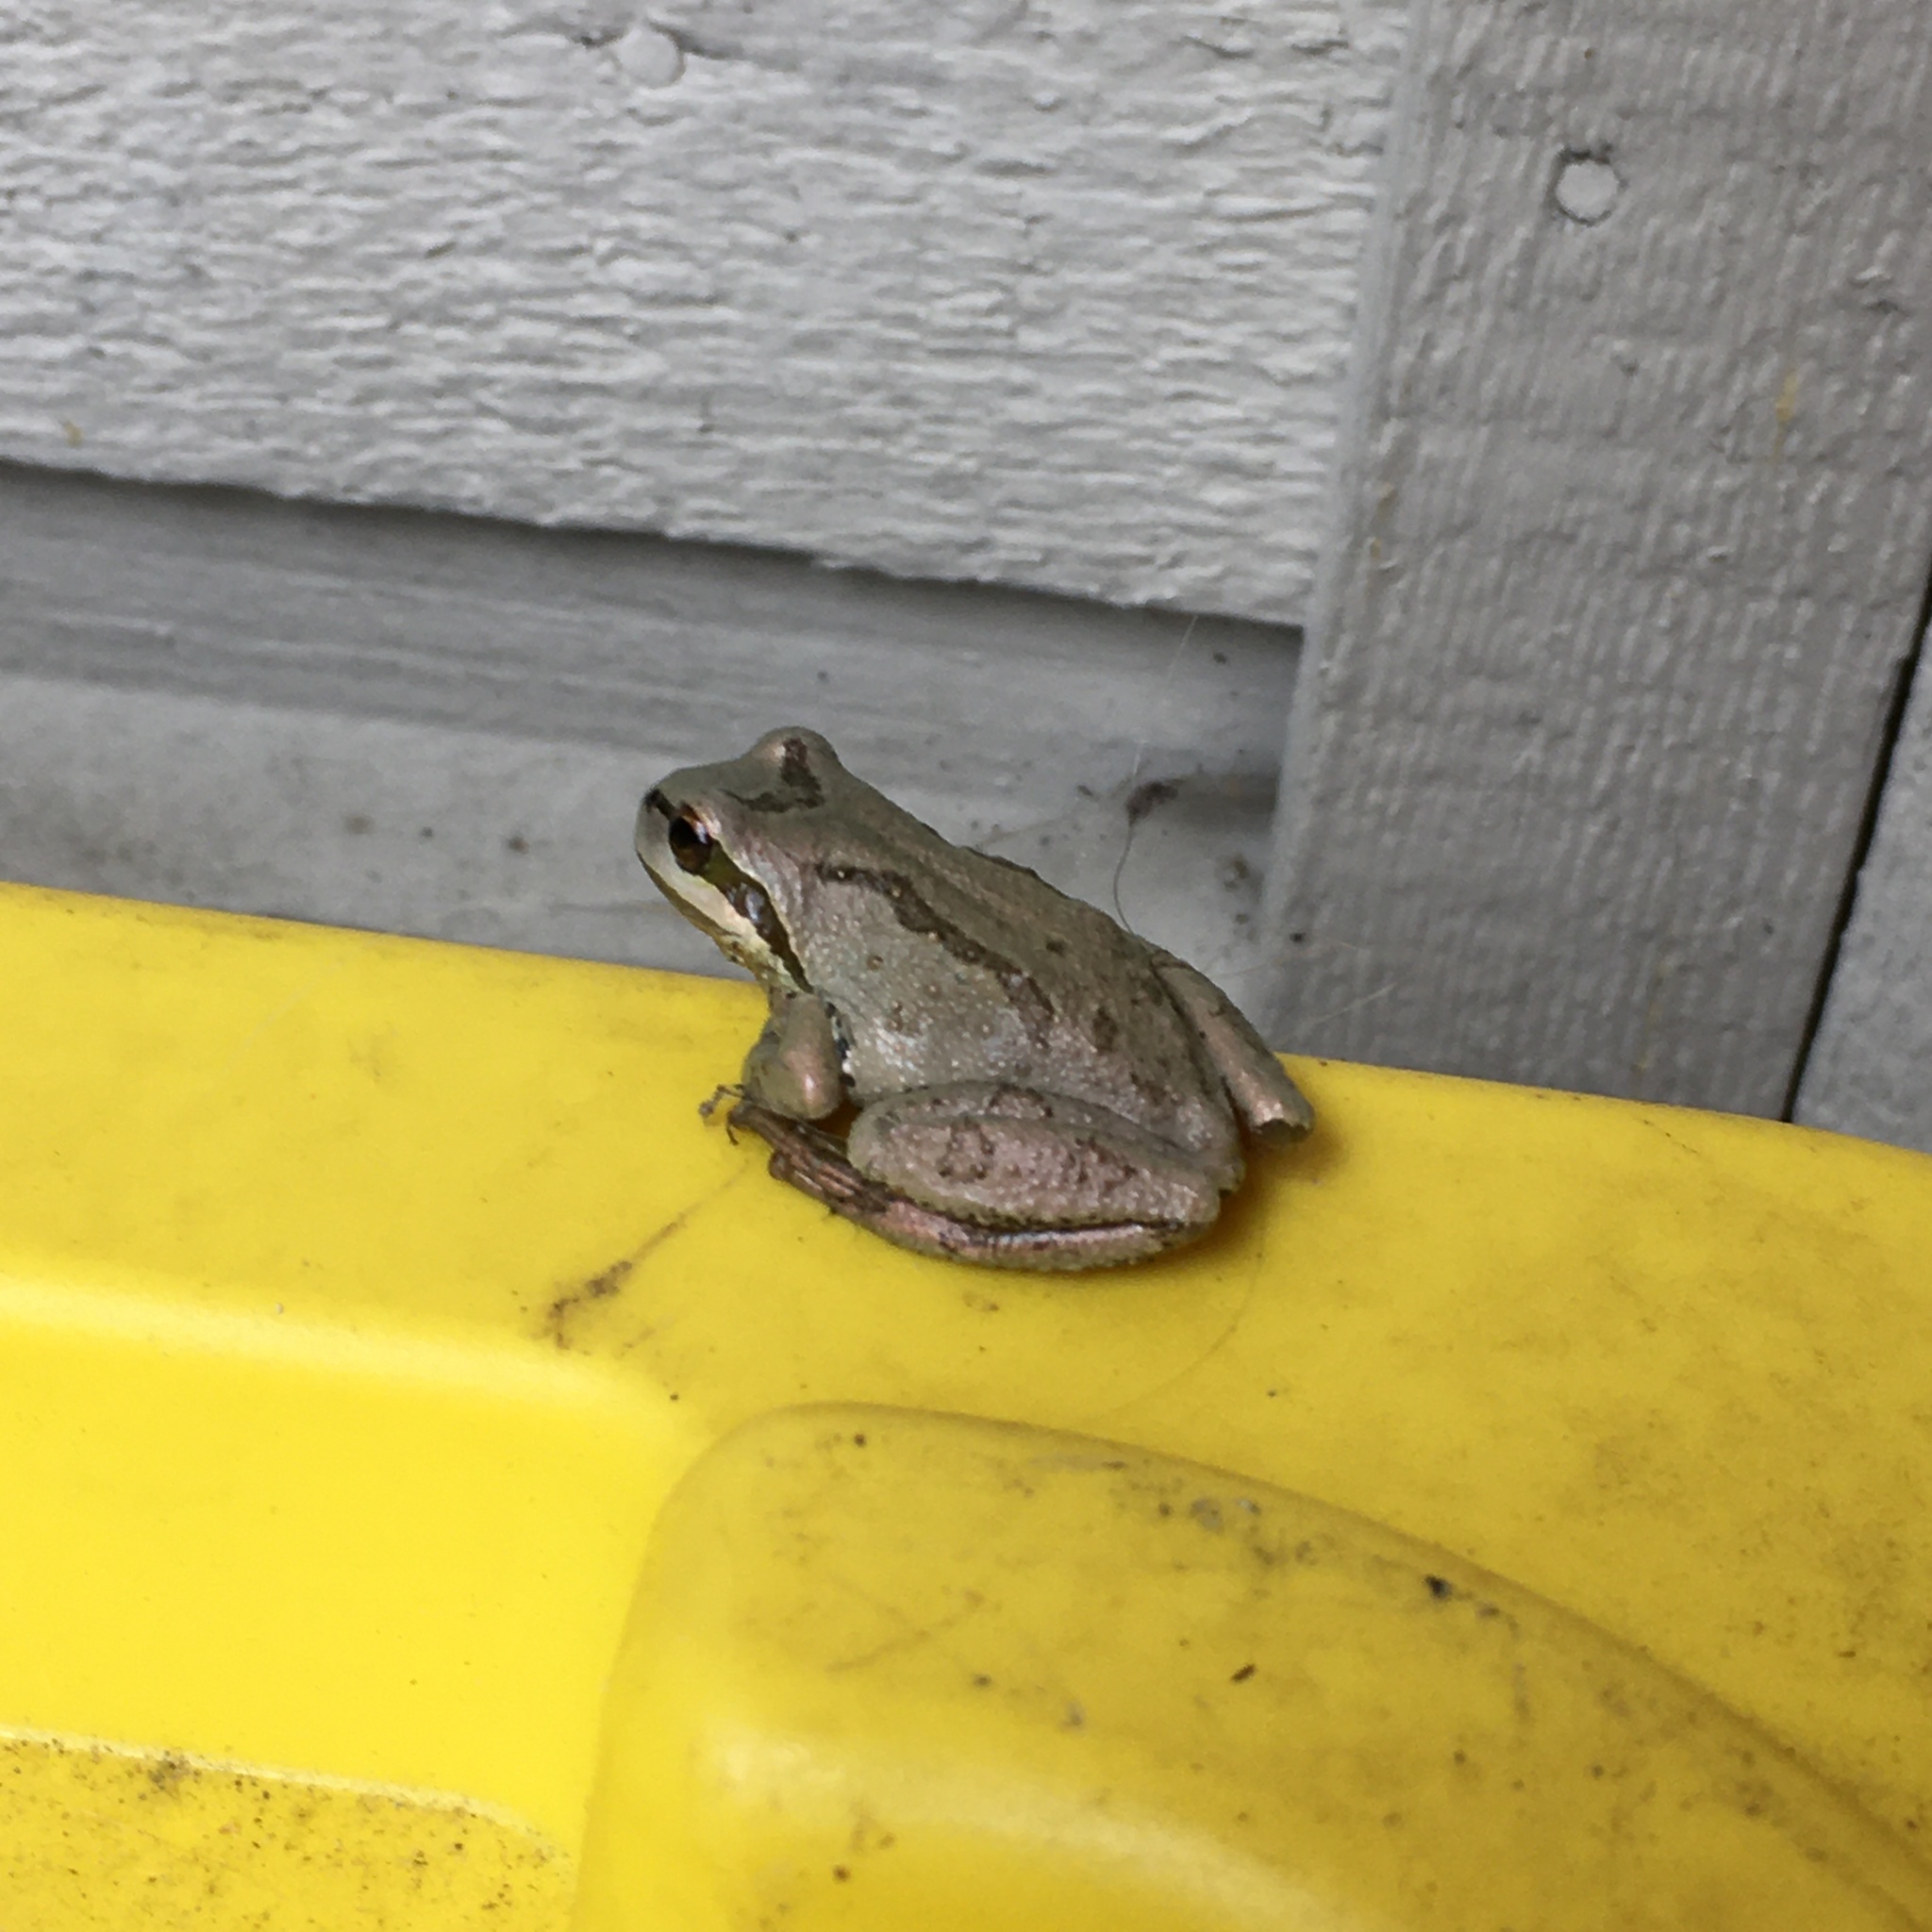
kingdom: Animalia
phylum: Chordata
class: Amphibia
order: Anura
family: Hylidae
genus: Pseudacris
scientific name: Pseudacris regilla
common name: Pacific chorus frog
